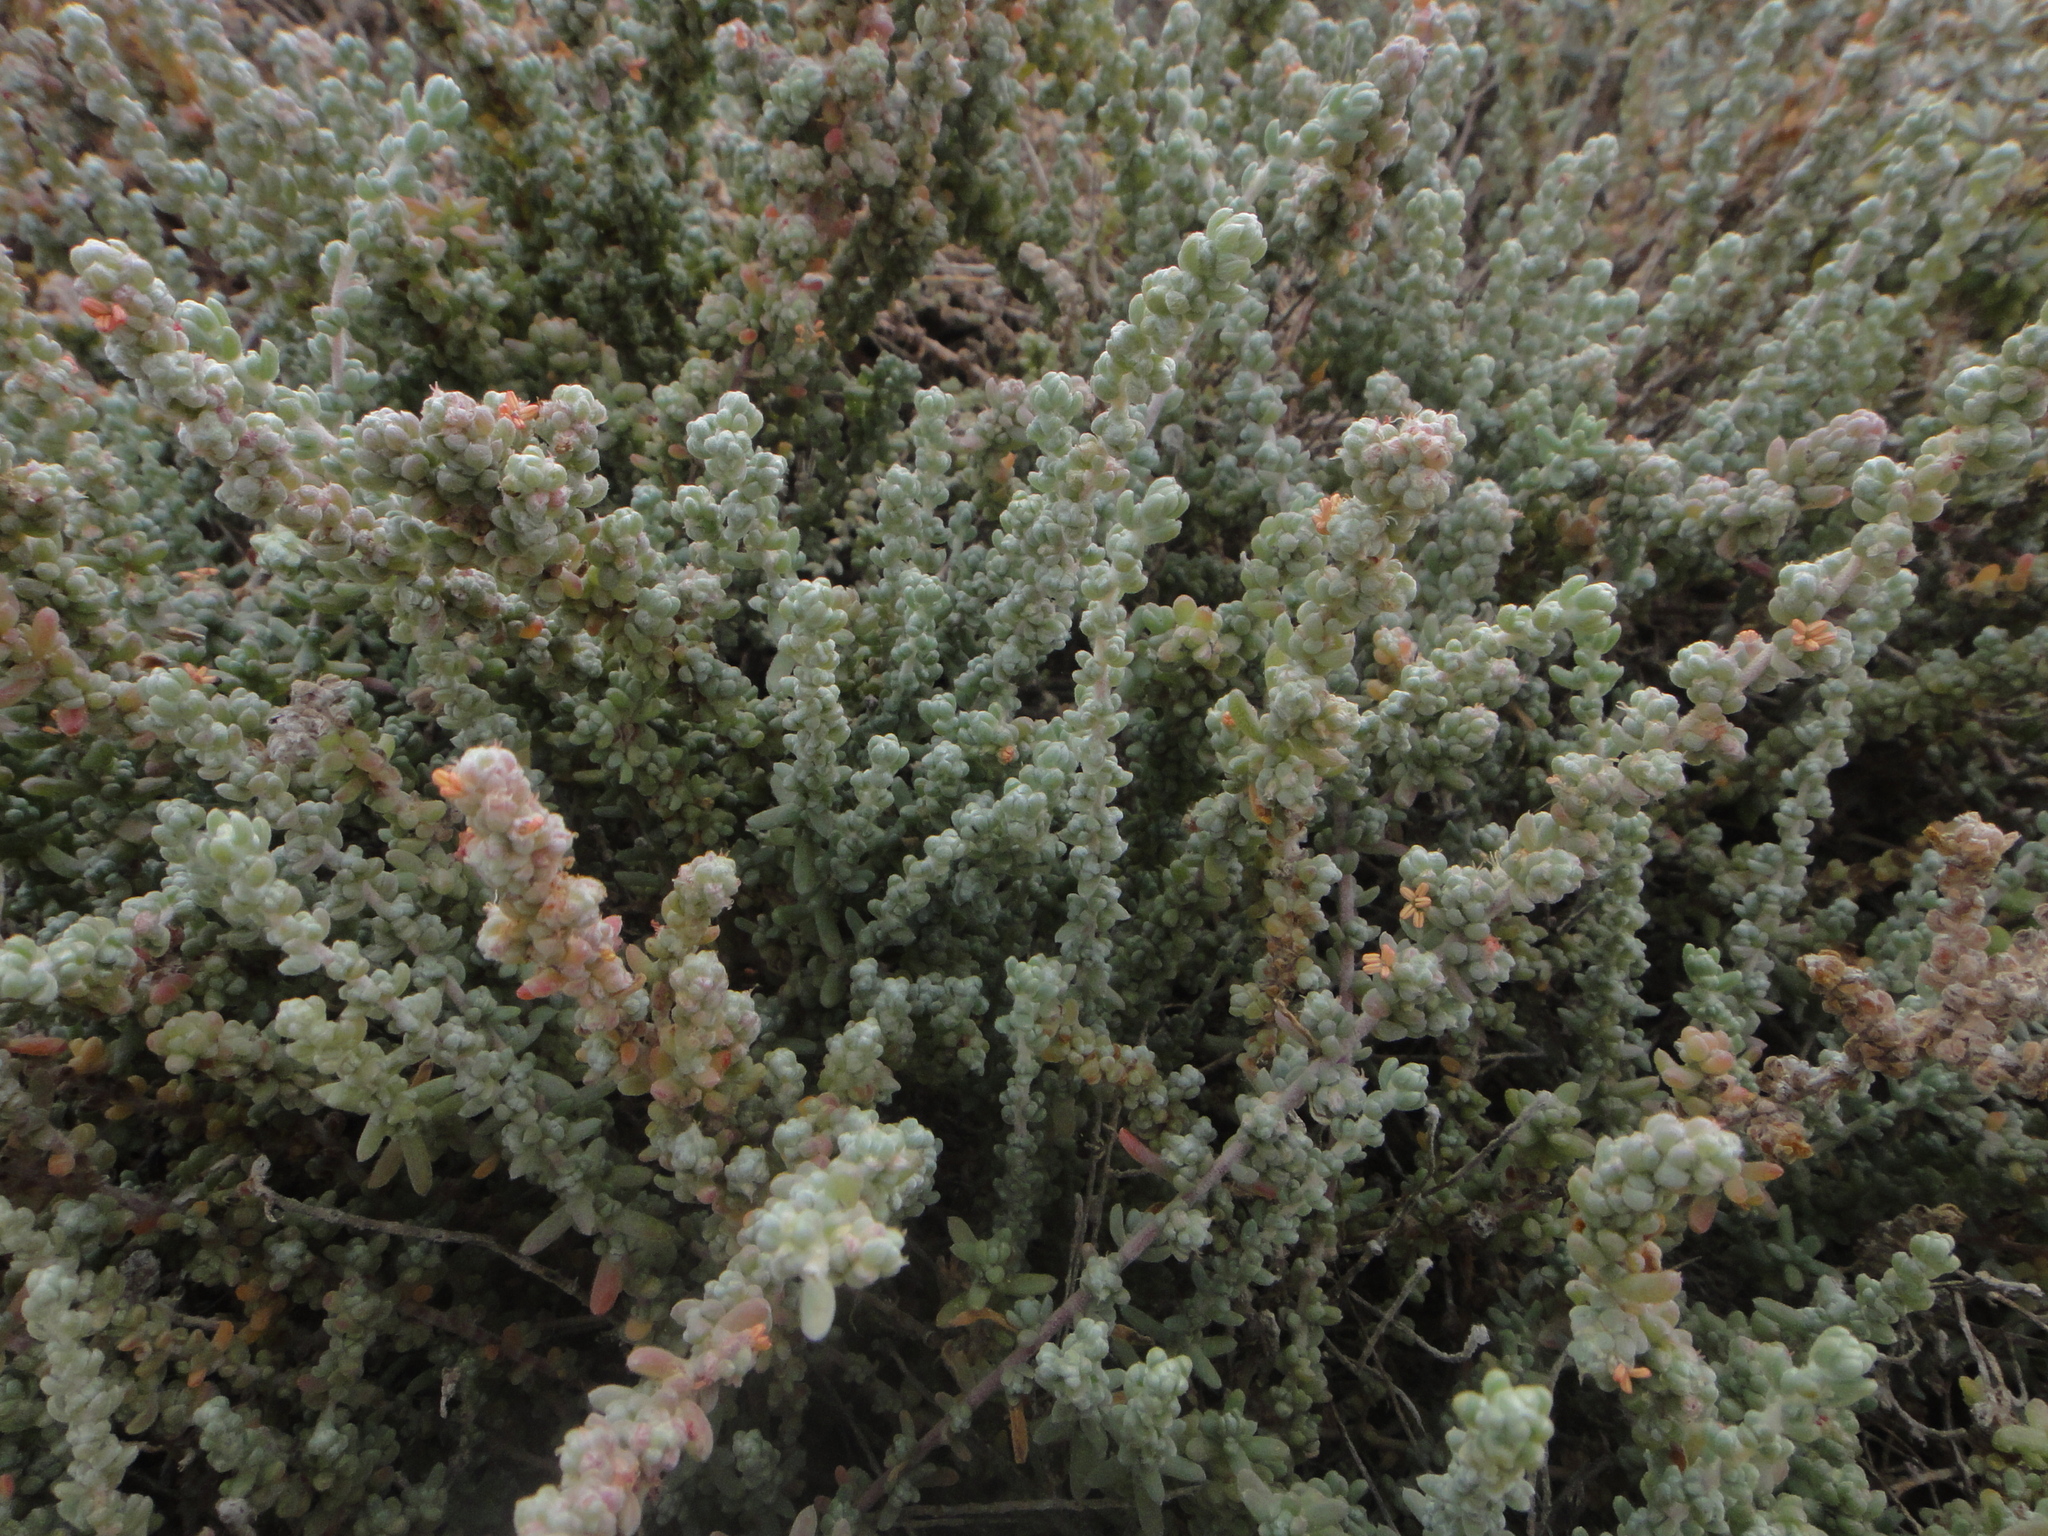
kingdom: Plantae
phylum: Tracheophyta
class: Magnoliopsida
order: Caryophyllales
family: Amaranthaceae
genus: Bassia
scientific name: Bassia tomentosa
